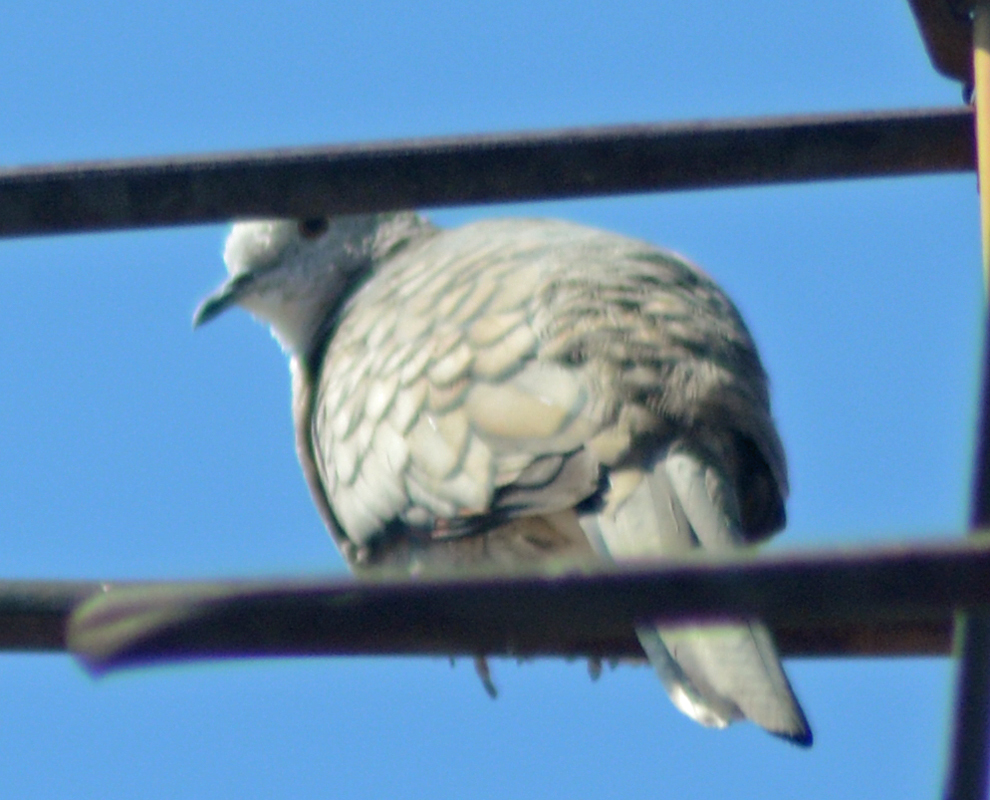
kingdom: Animalia
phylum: Chordata
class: Aves
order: Columbiformes
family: Columbidae
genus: Columbina
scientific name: Columbina inca
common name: Inca dove
